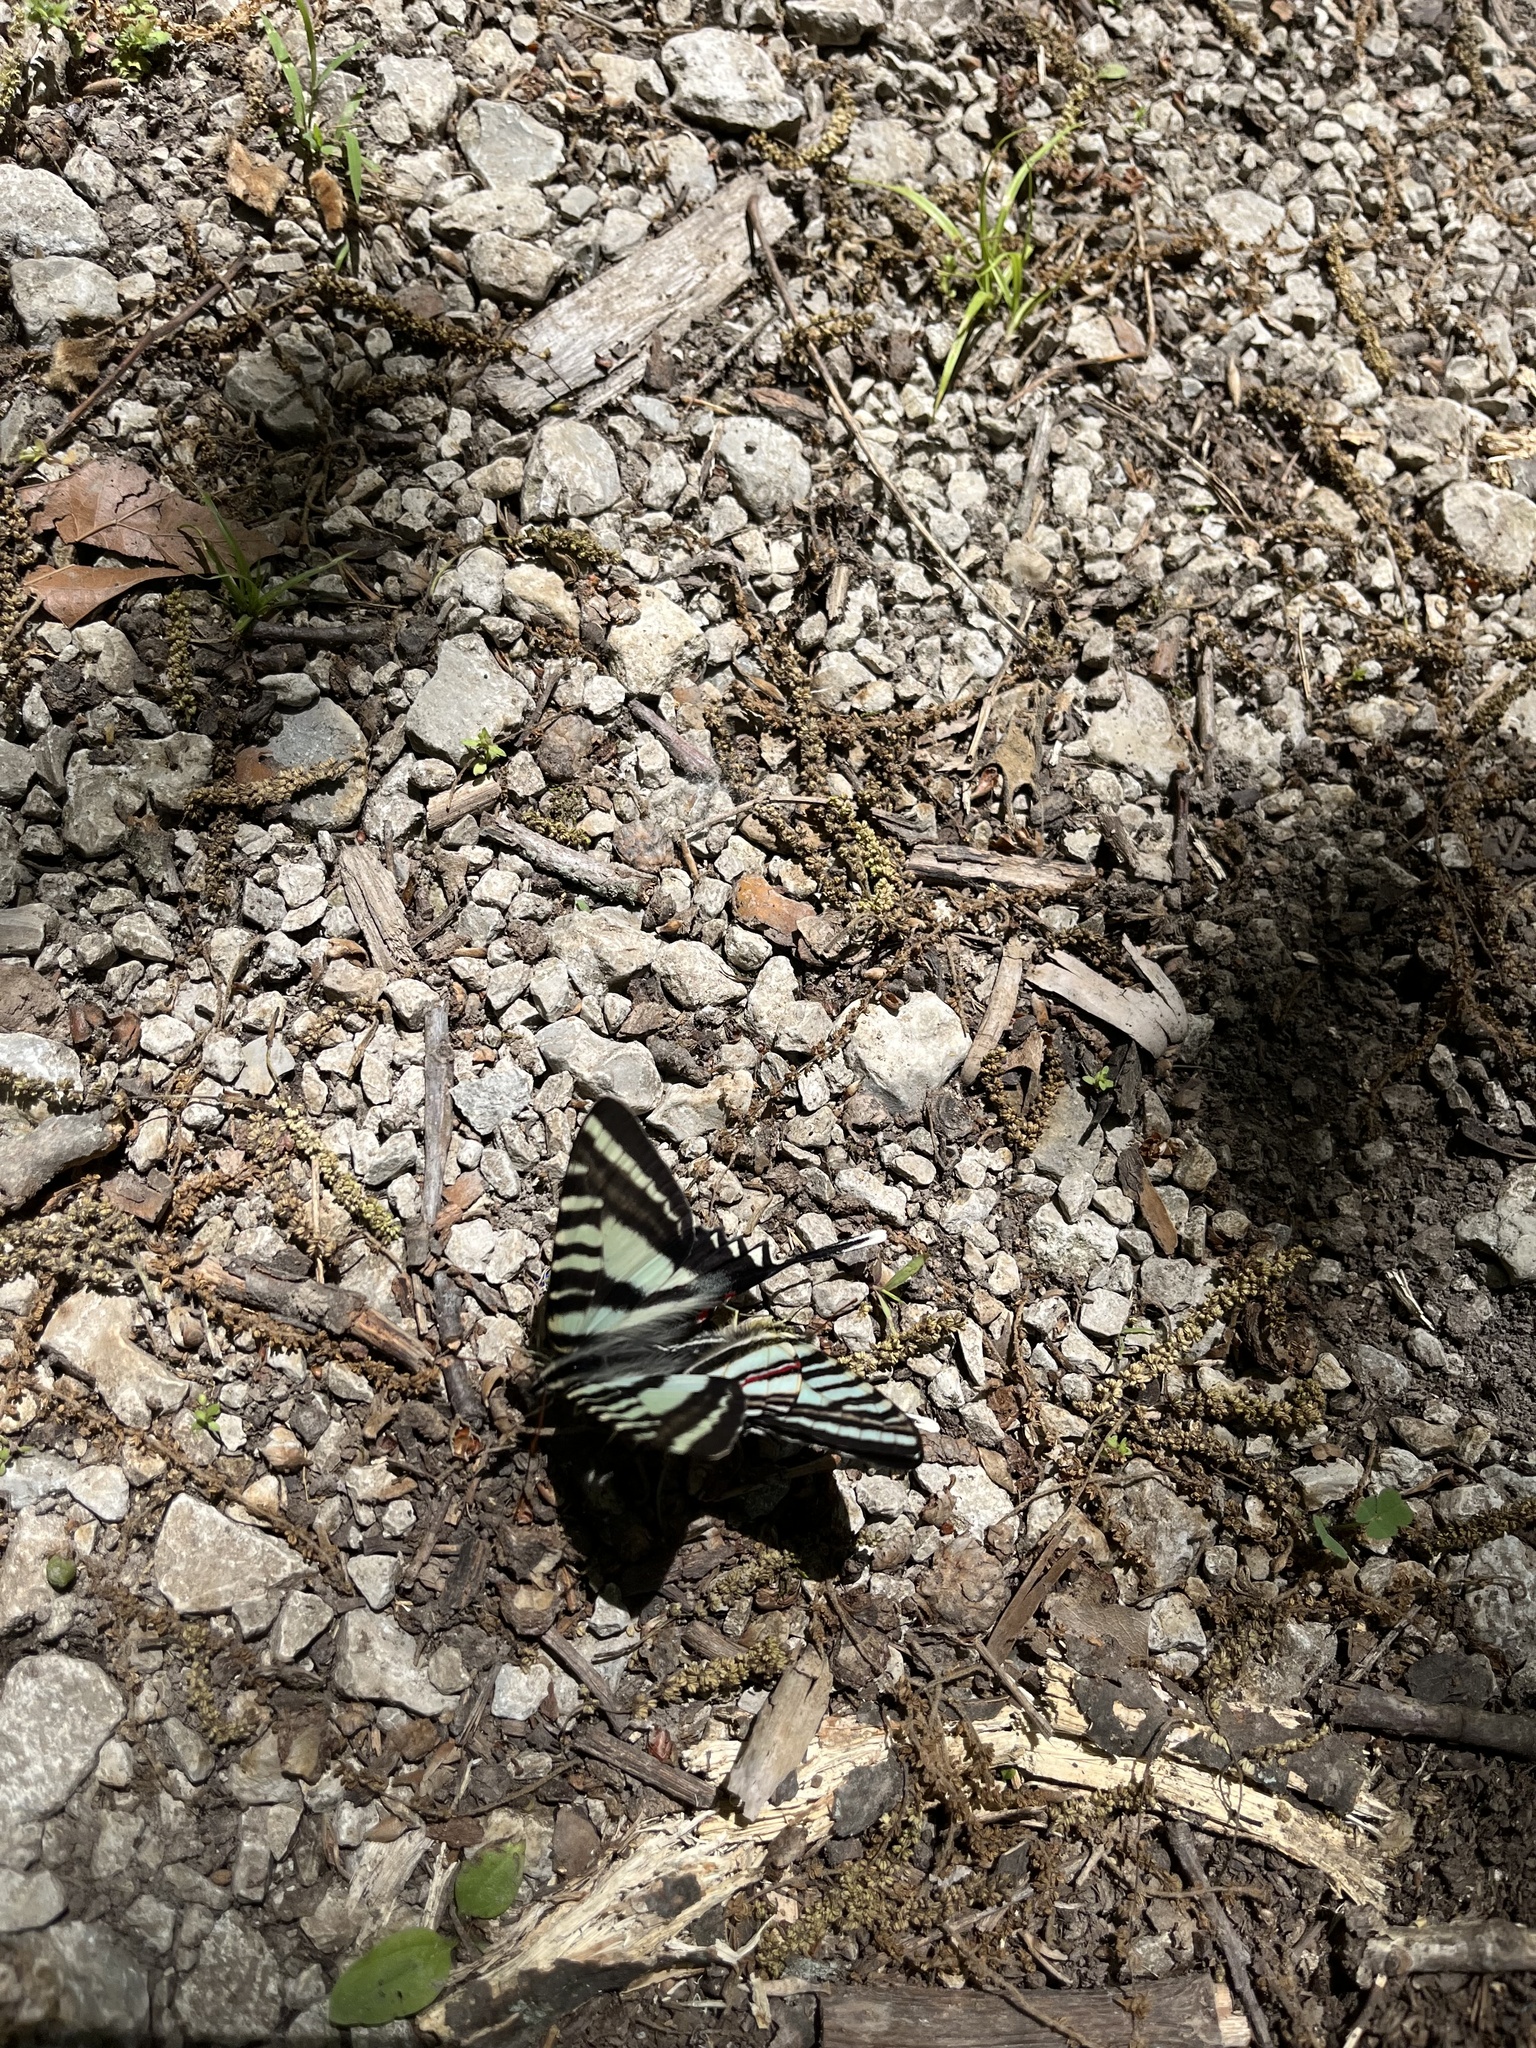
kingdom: Animalia
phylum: Arthropoda
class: Insecta
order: Lepidoptera
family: Papilionidae
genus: Protographium
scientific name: Protographium marcellus
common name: Zebra swallowtail
